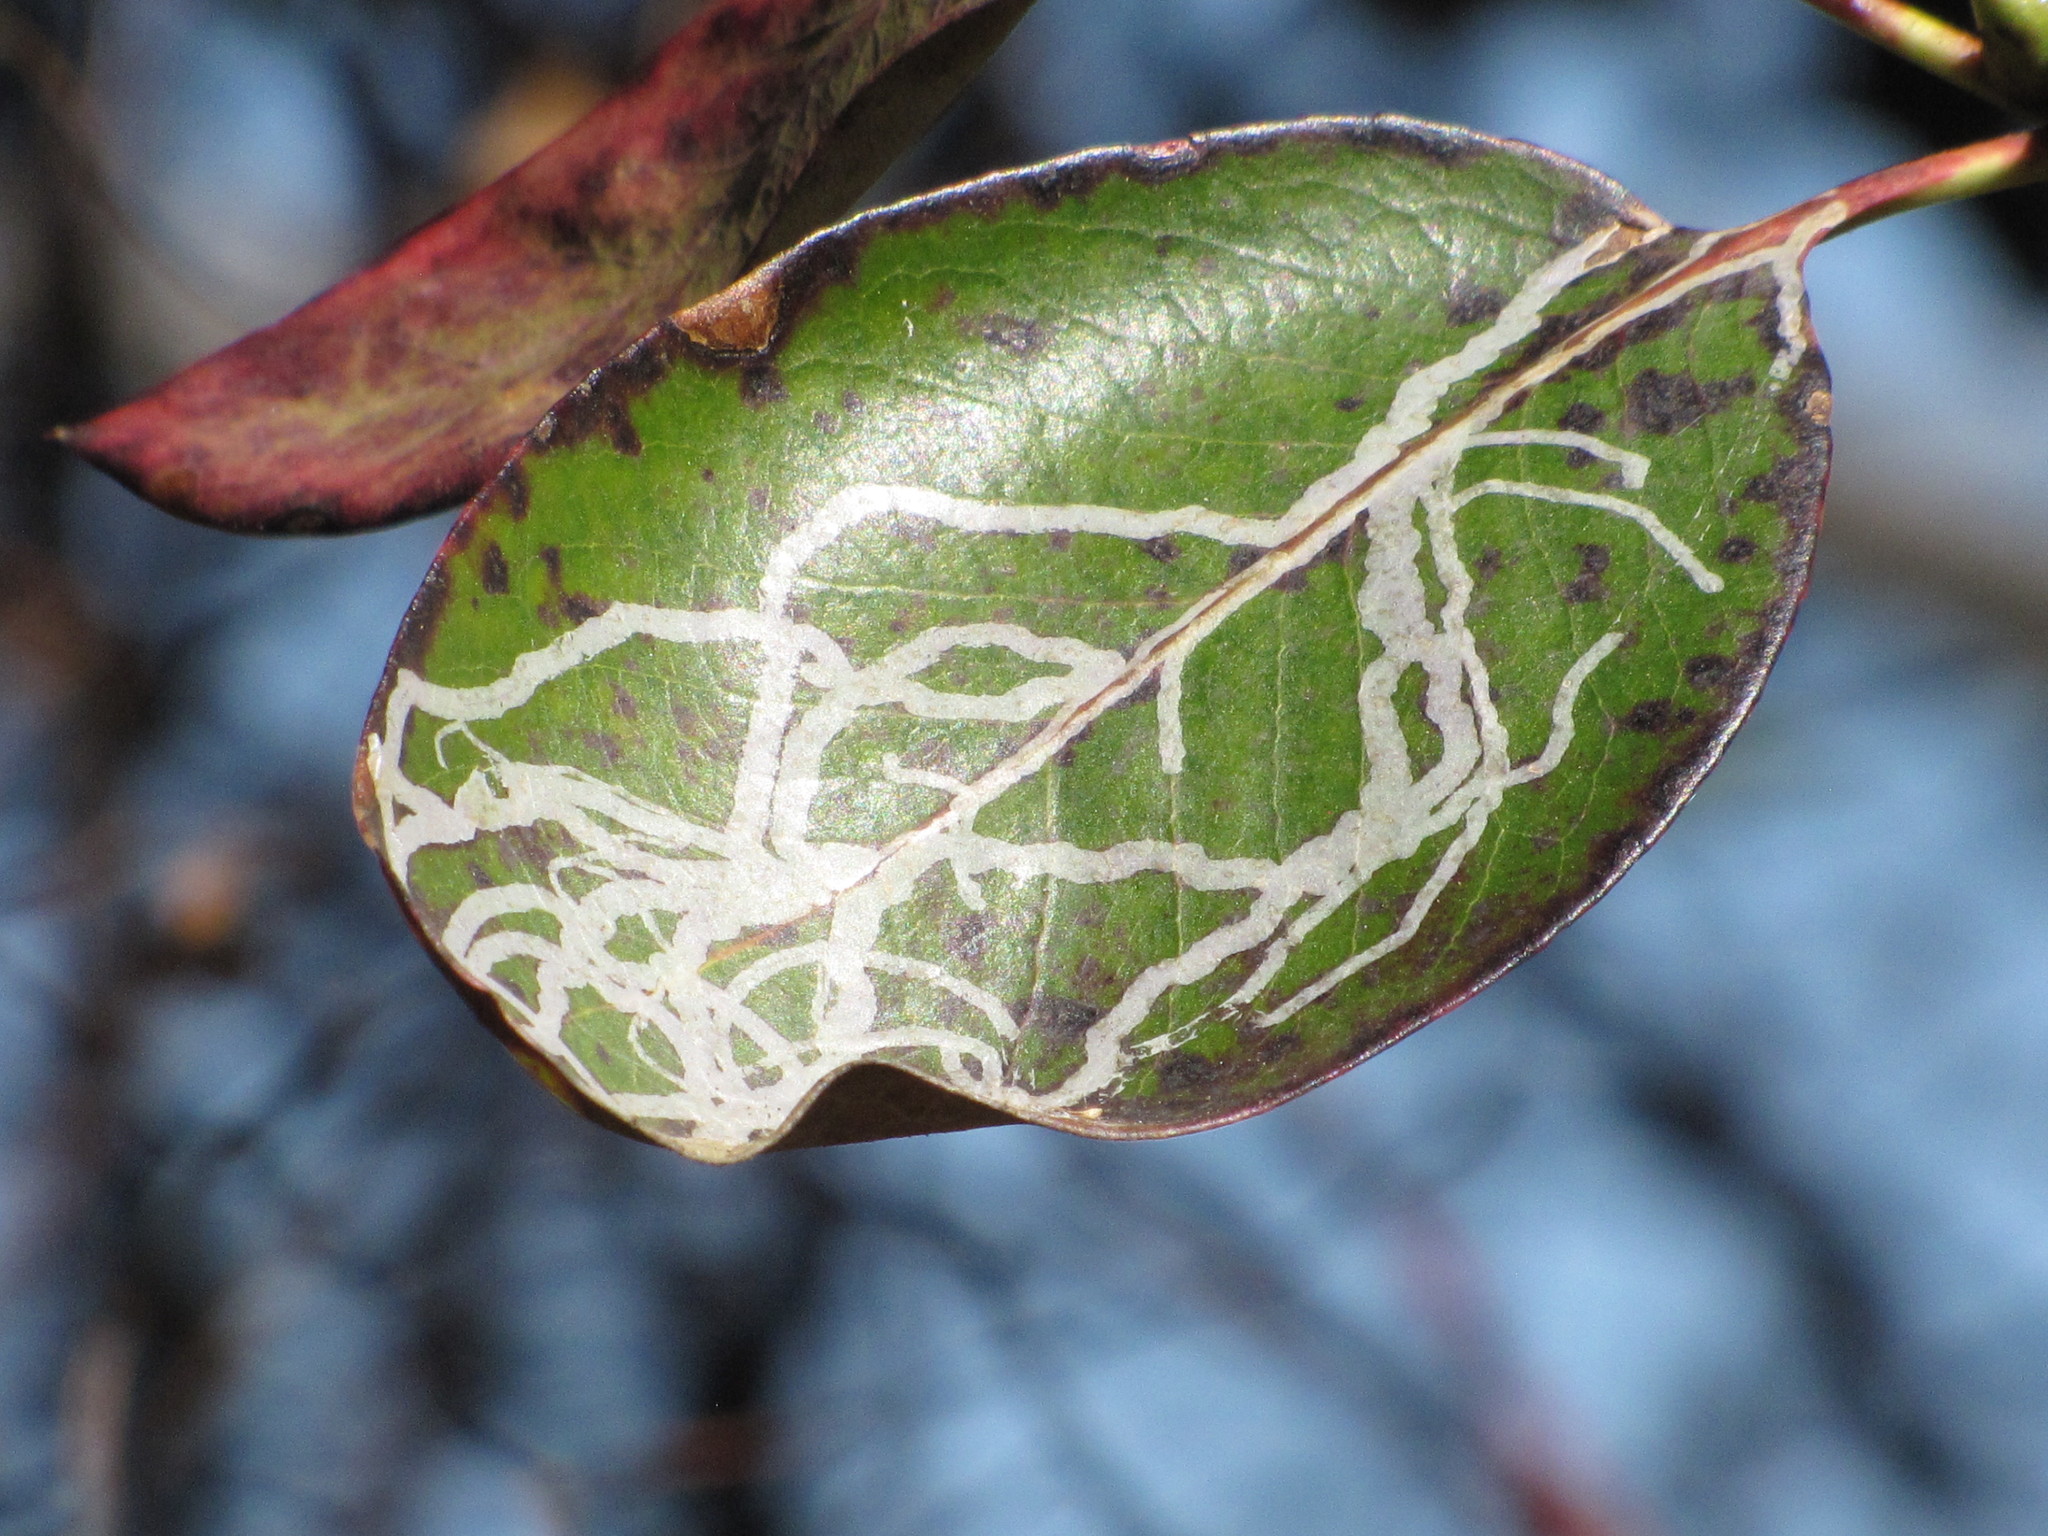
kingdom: Animalia
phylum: Arthropoda
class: Insecta
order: Lepidoptera
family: Gracillariidae
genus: Marmara
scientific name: Marmara arbutiella
